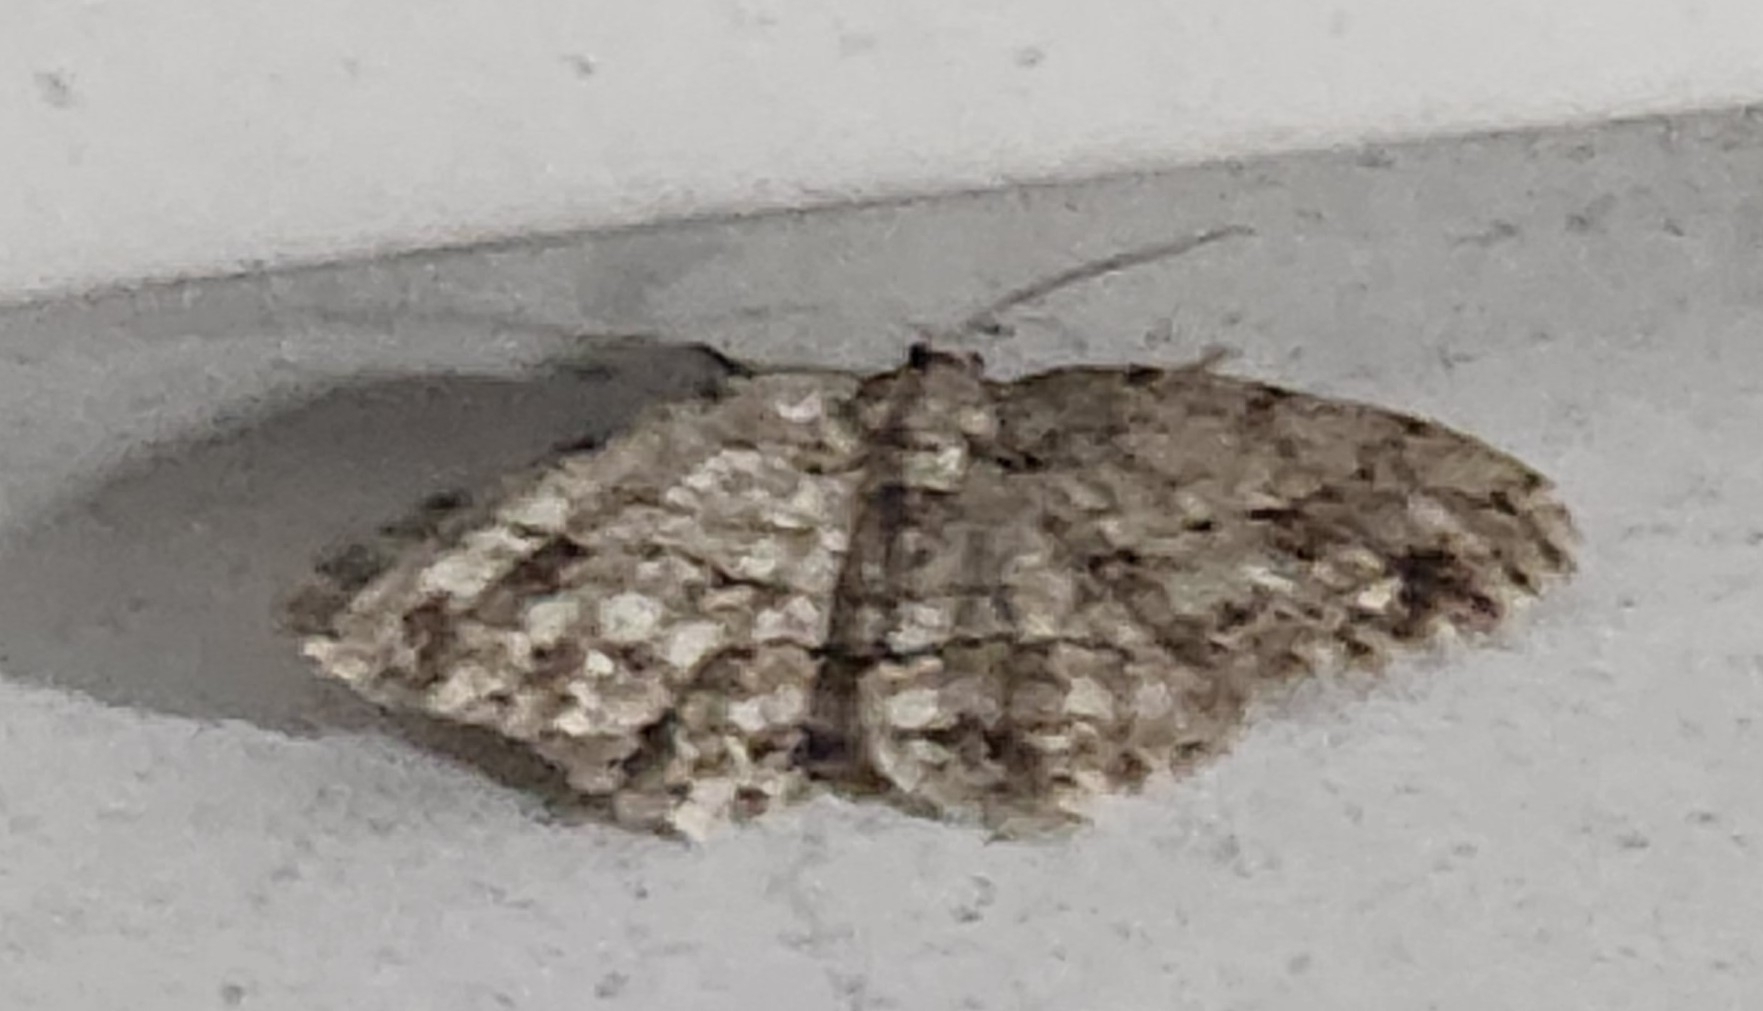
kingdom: Animalia
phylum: Arthropoda
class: Insecta
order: Lepidoptera
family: Geometridae
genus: Ectropis
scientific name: Ectropis crepuscularia
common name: Engrailed
